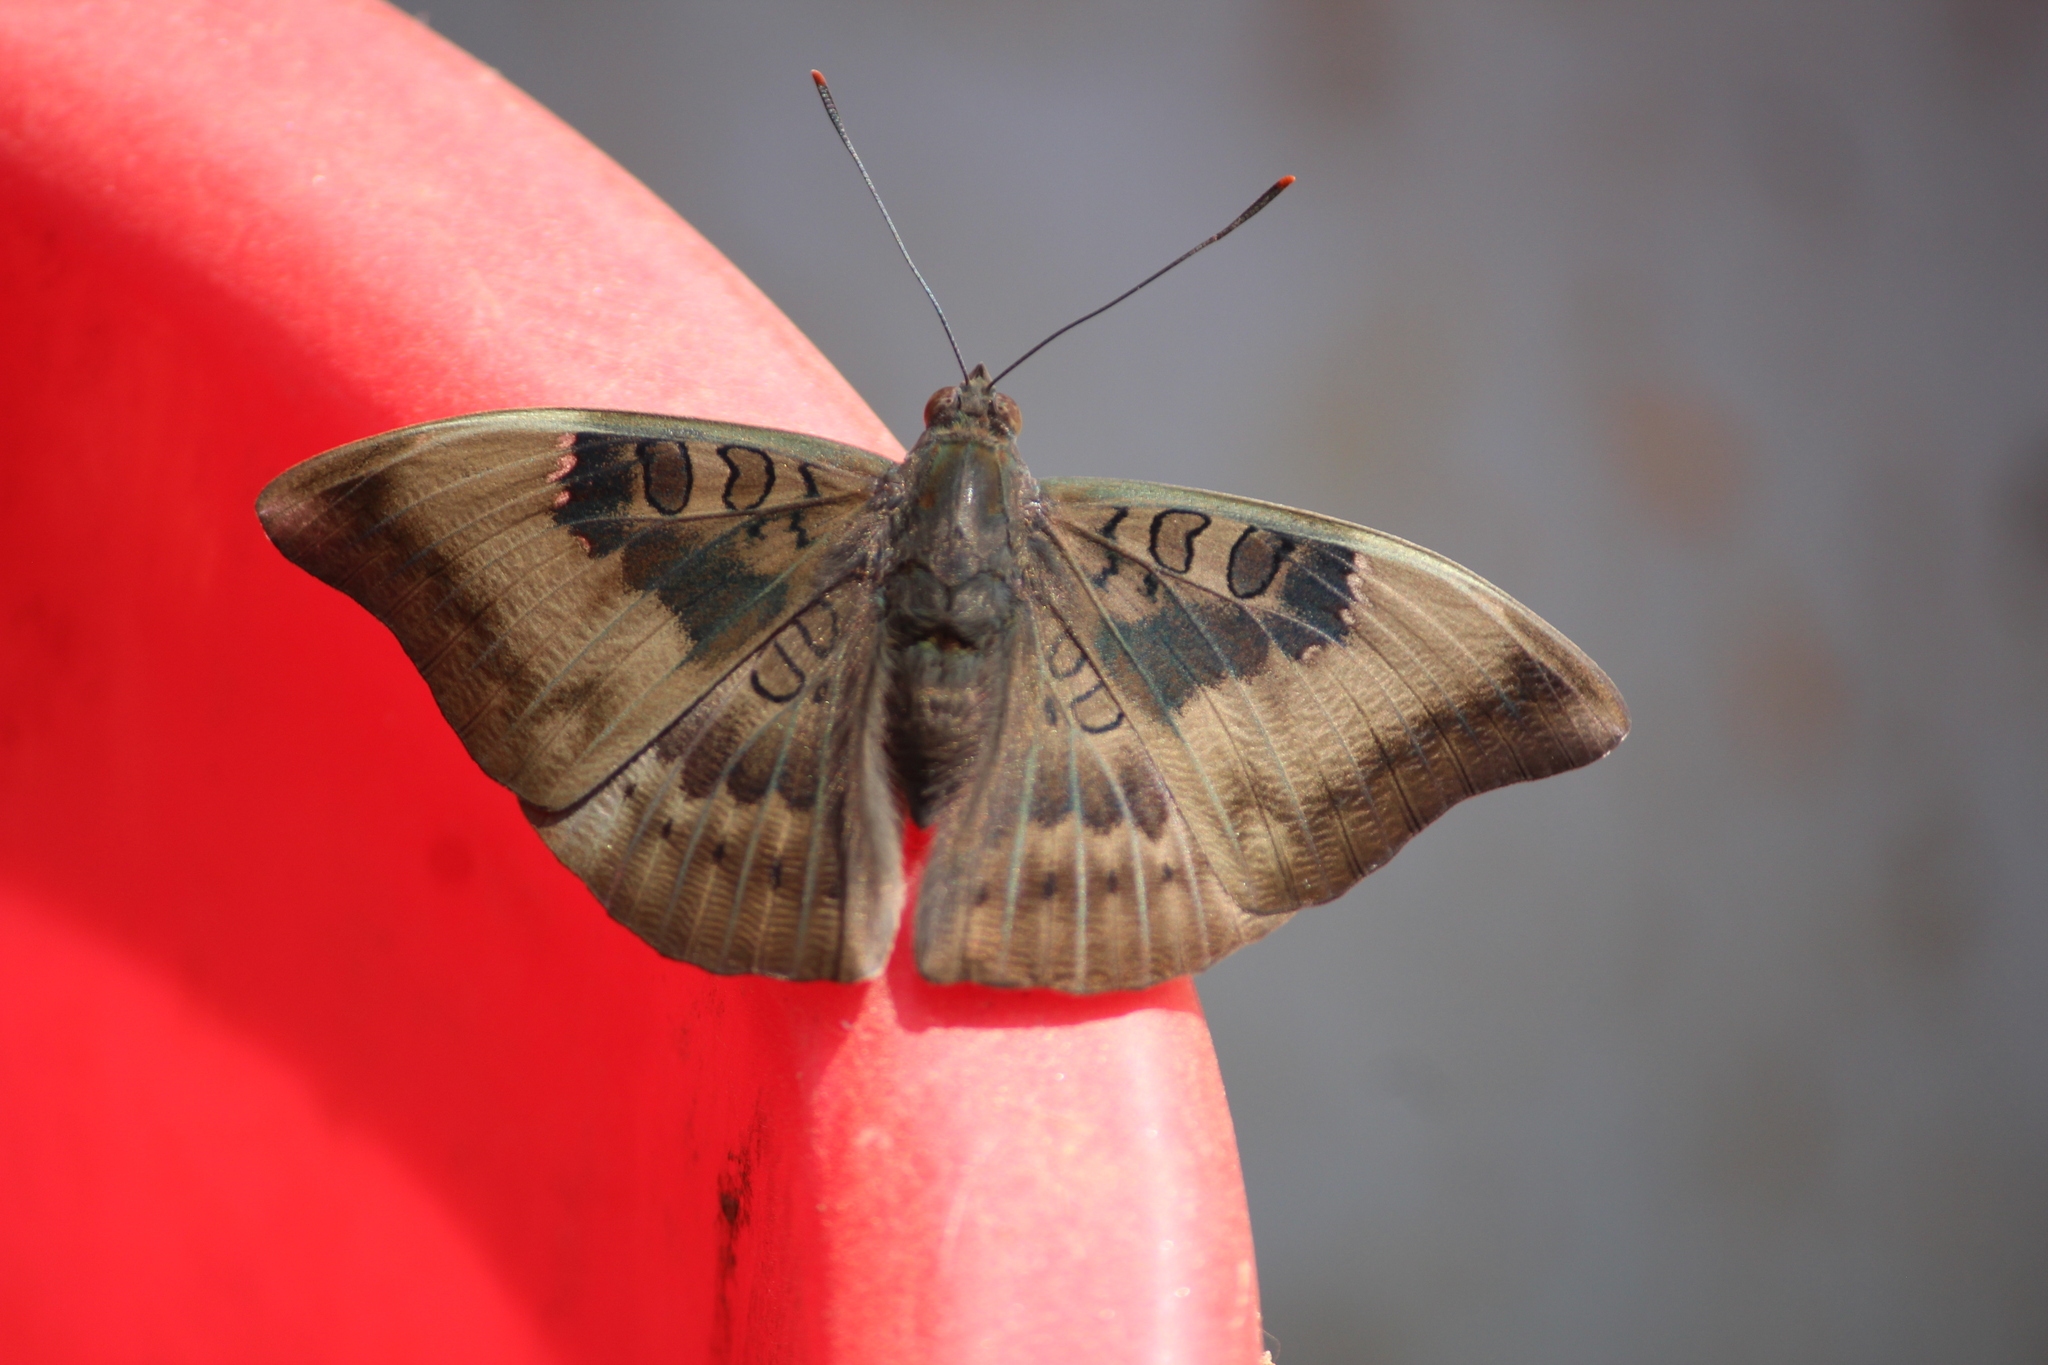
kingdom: Animalia
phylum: Arthropoda
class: Insecta
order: Lepidoptera
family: Nymphalidae
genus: Euthalia
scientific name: Euthalia aconthea
